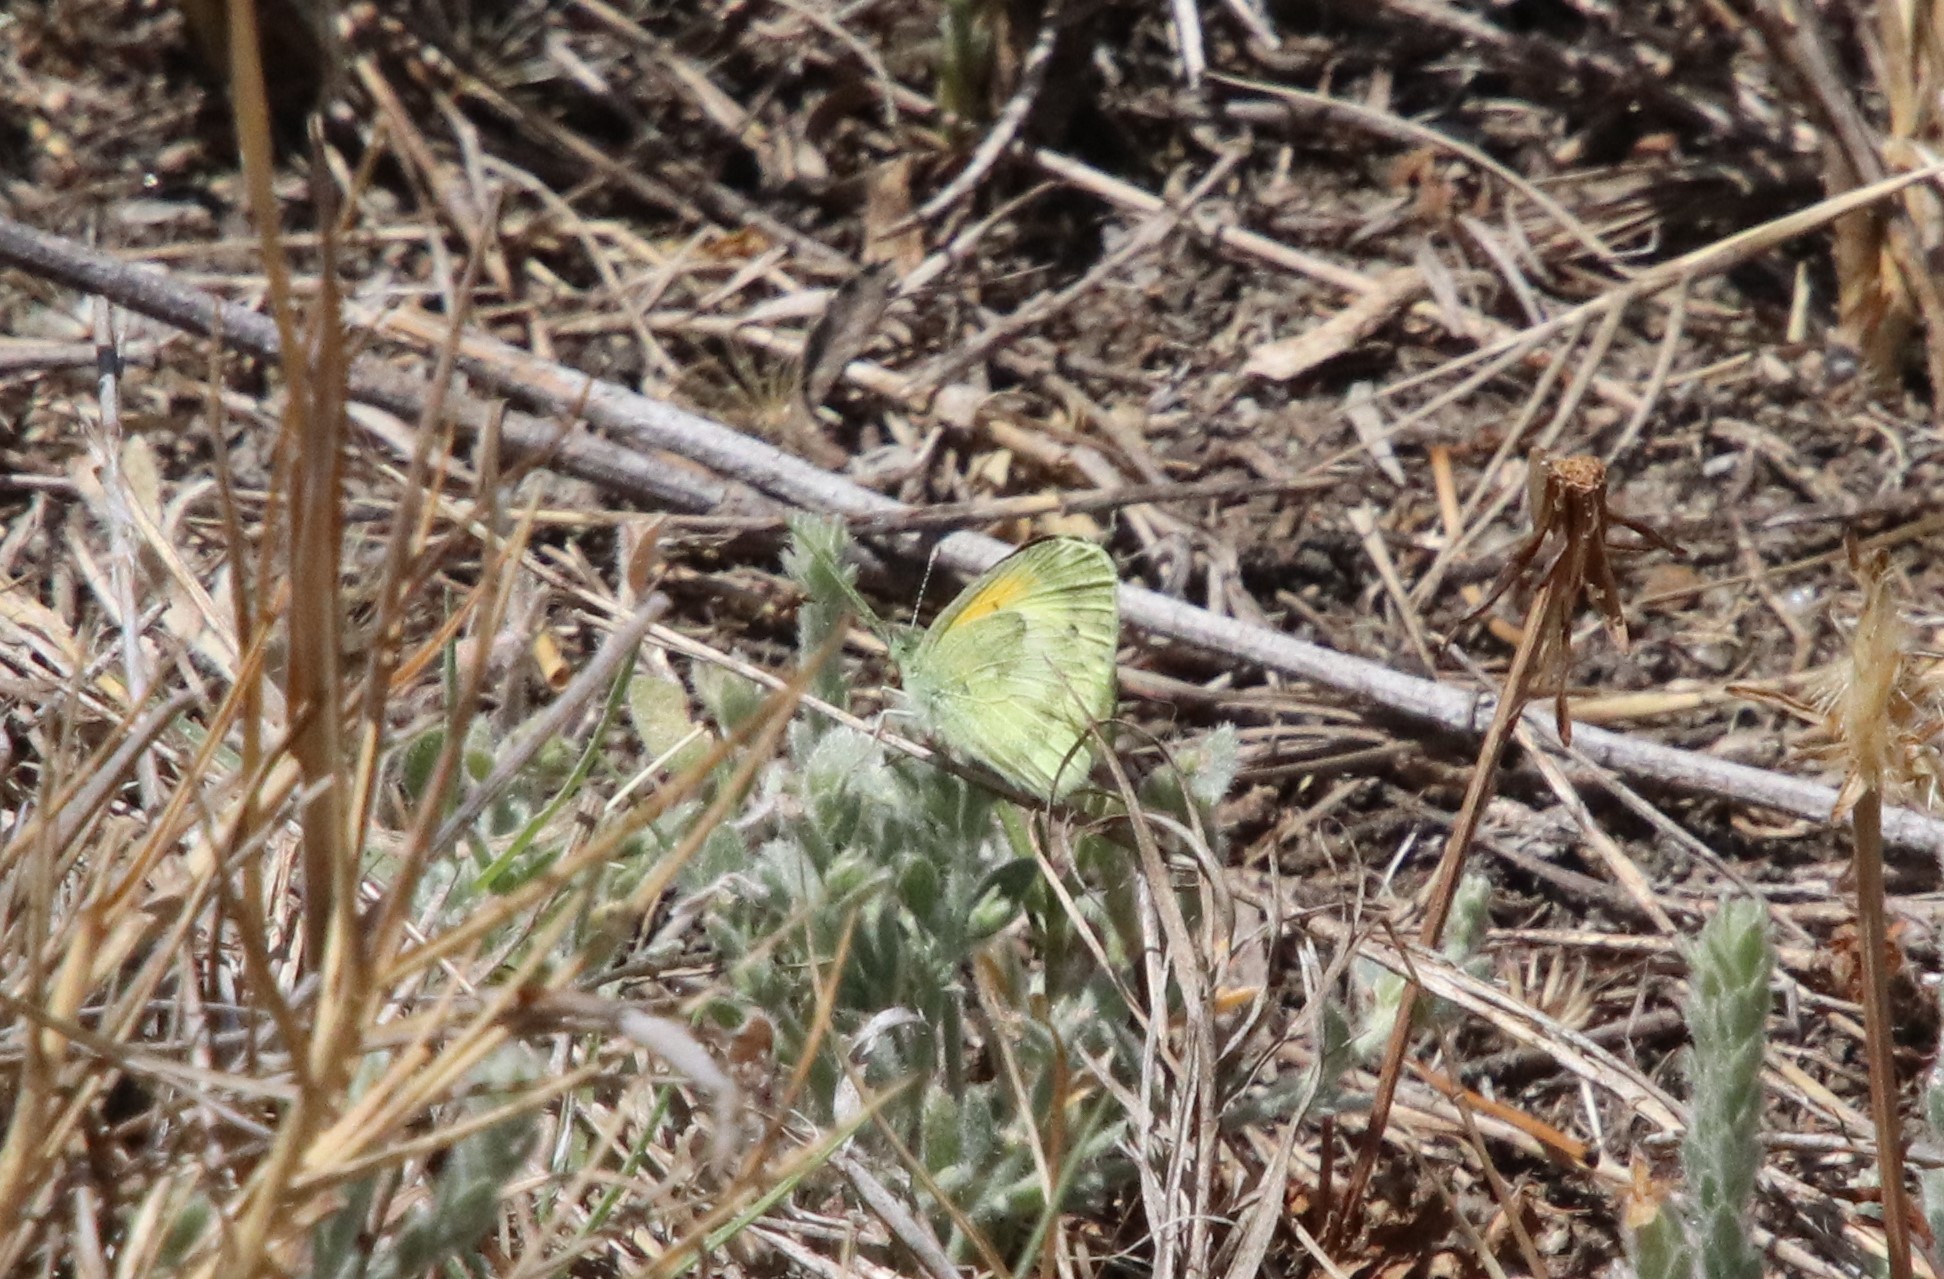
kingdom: Animalia
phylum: Arthropoda
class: Insecta
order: Lepidoptera
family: Pieridae
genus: Nathalis
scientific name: Nathalis iole
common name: Dainty sulphur
